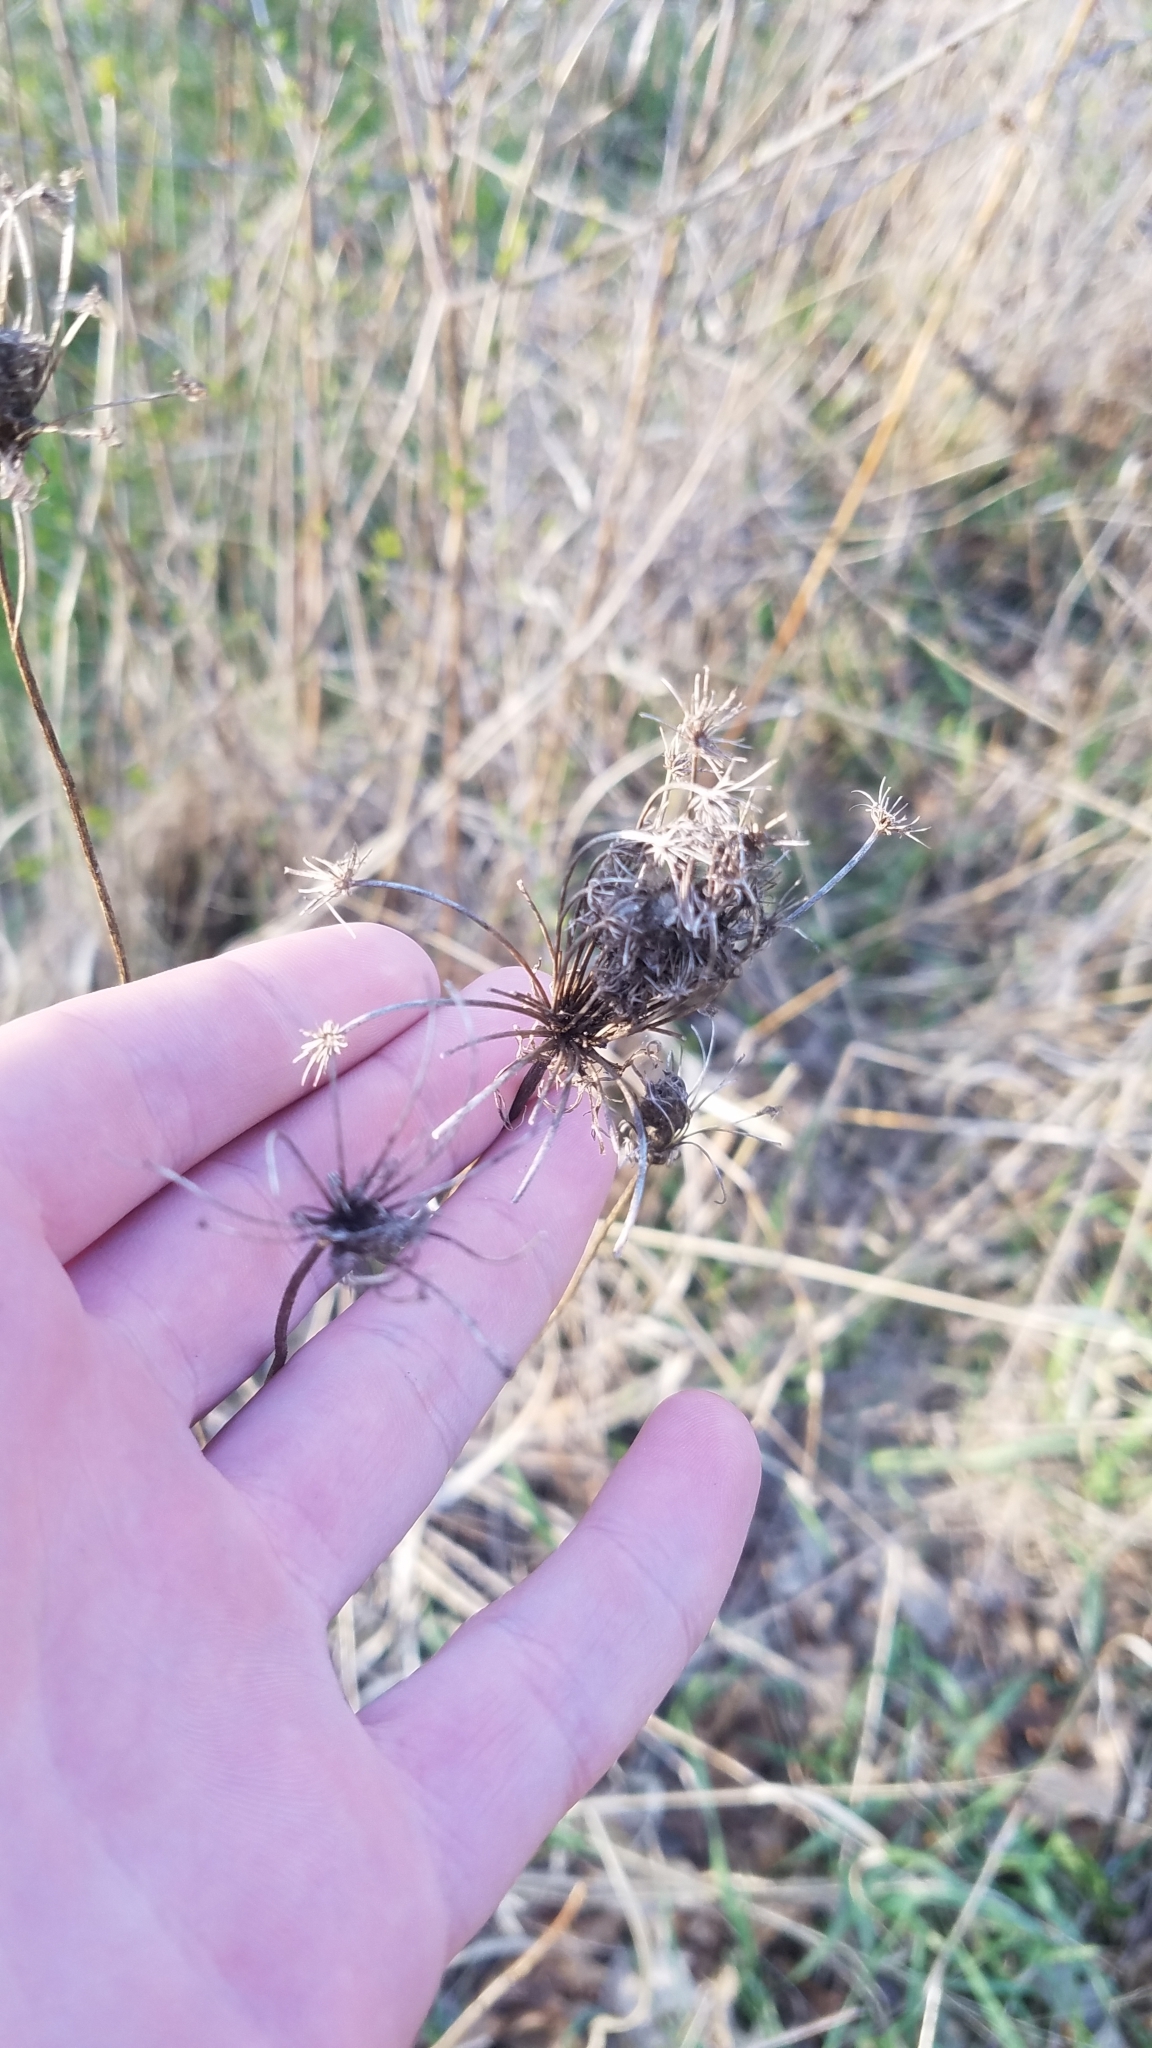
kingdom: Plantae
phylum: Tracheophyta
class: Magnoliopsida
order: Apiales
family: Apiaceae
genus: Daucus
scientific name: Daucus carota
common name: Wild carrot
